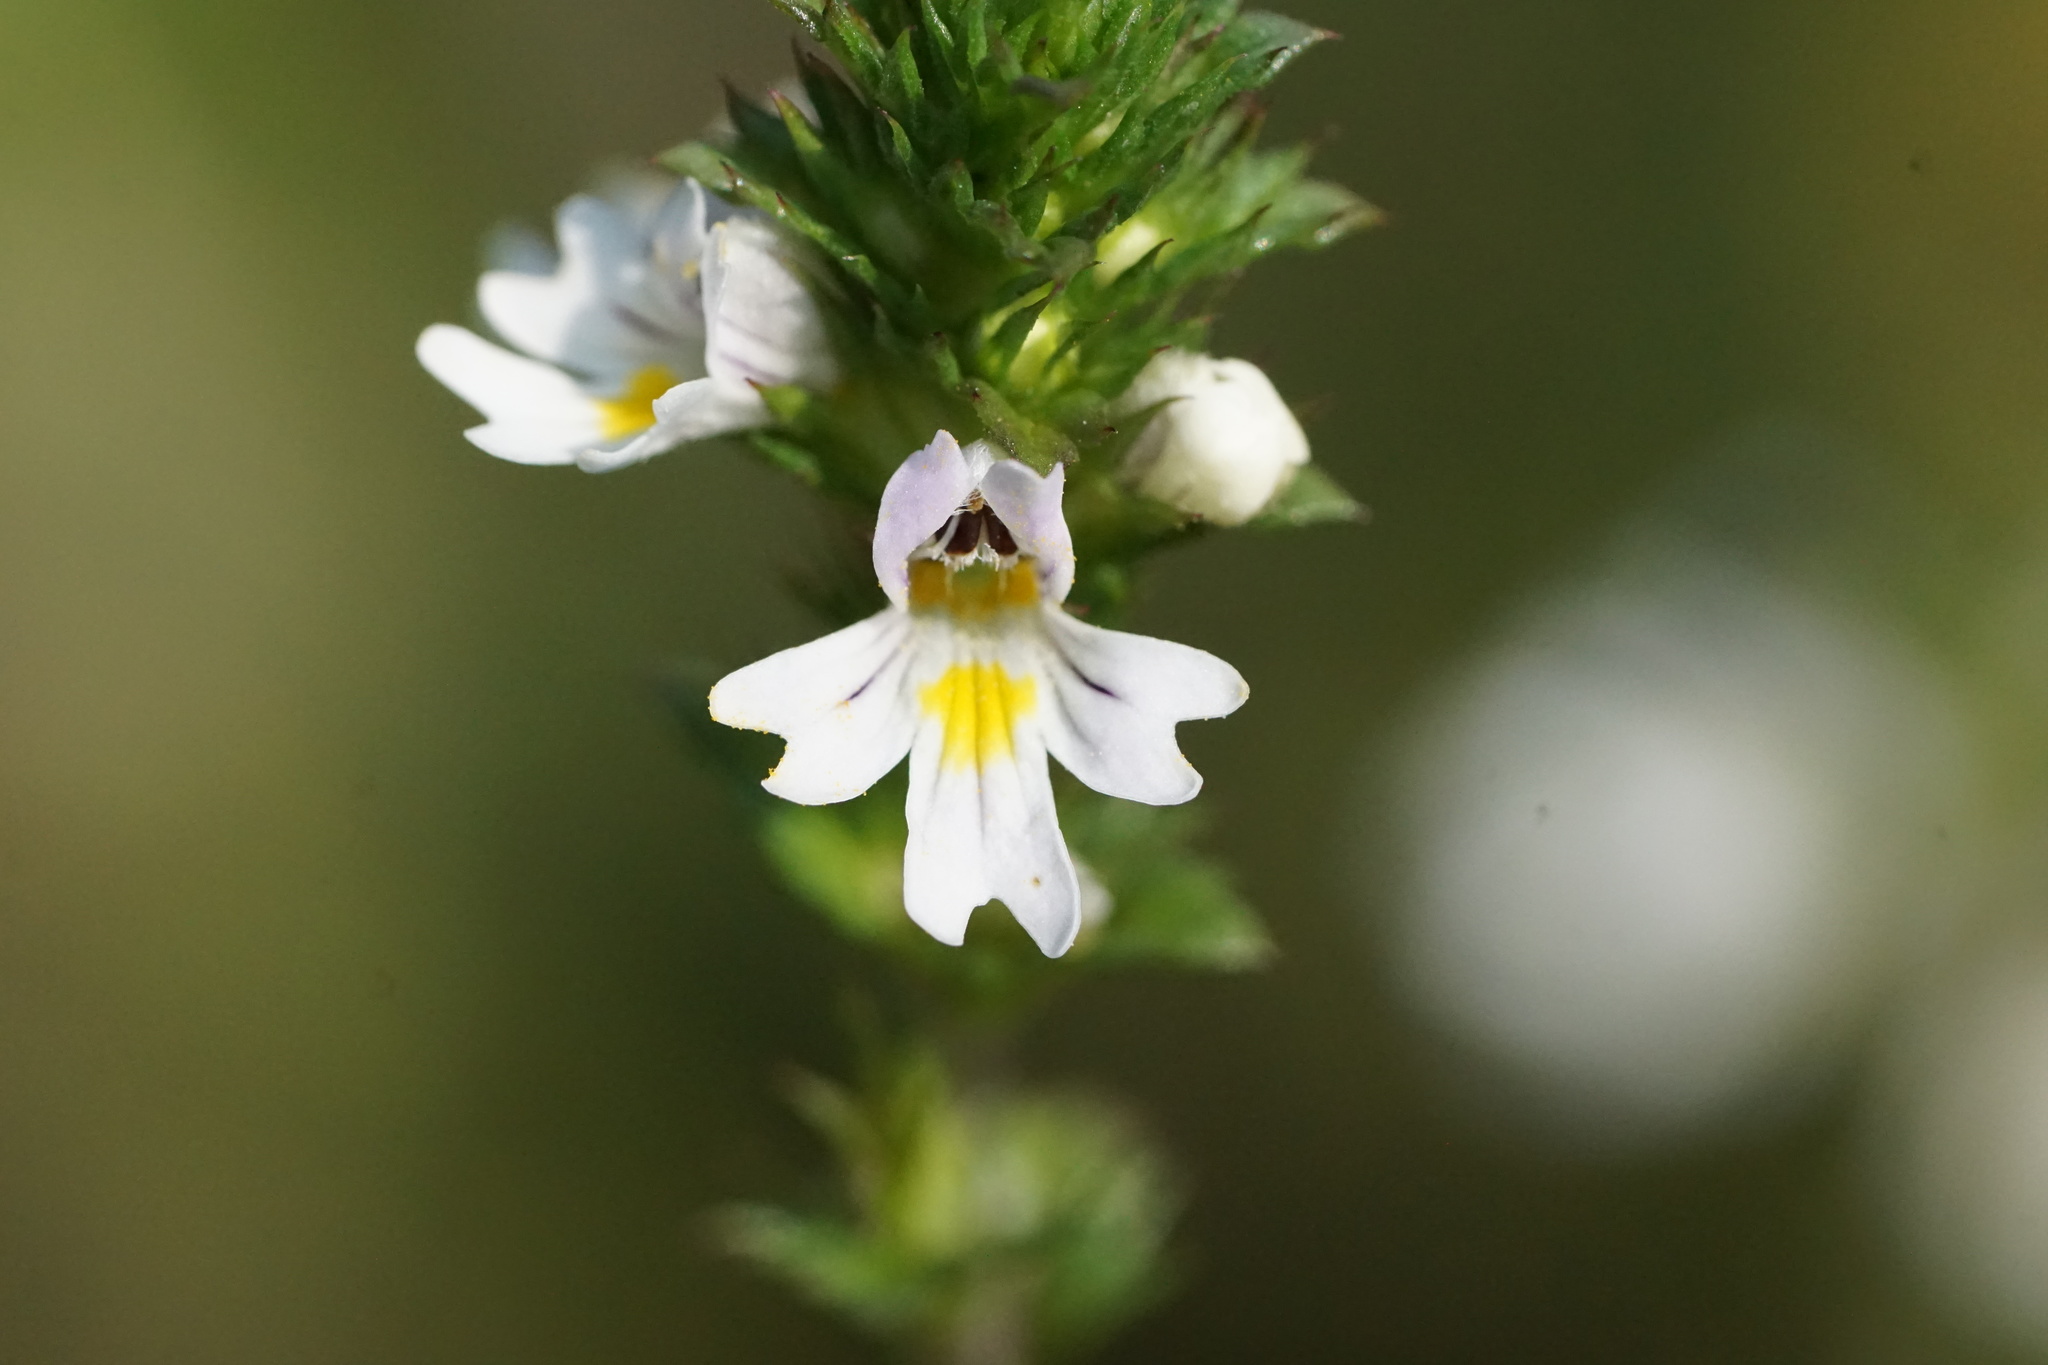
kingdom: Plantae
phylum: Tracheophyta
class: Magnoliopsida
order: Lamiales
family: Orobanchaceae
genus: Euphrasia
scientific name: Euphrasia nemorosa
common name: Common eyebright
